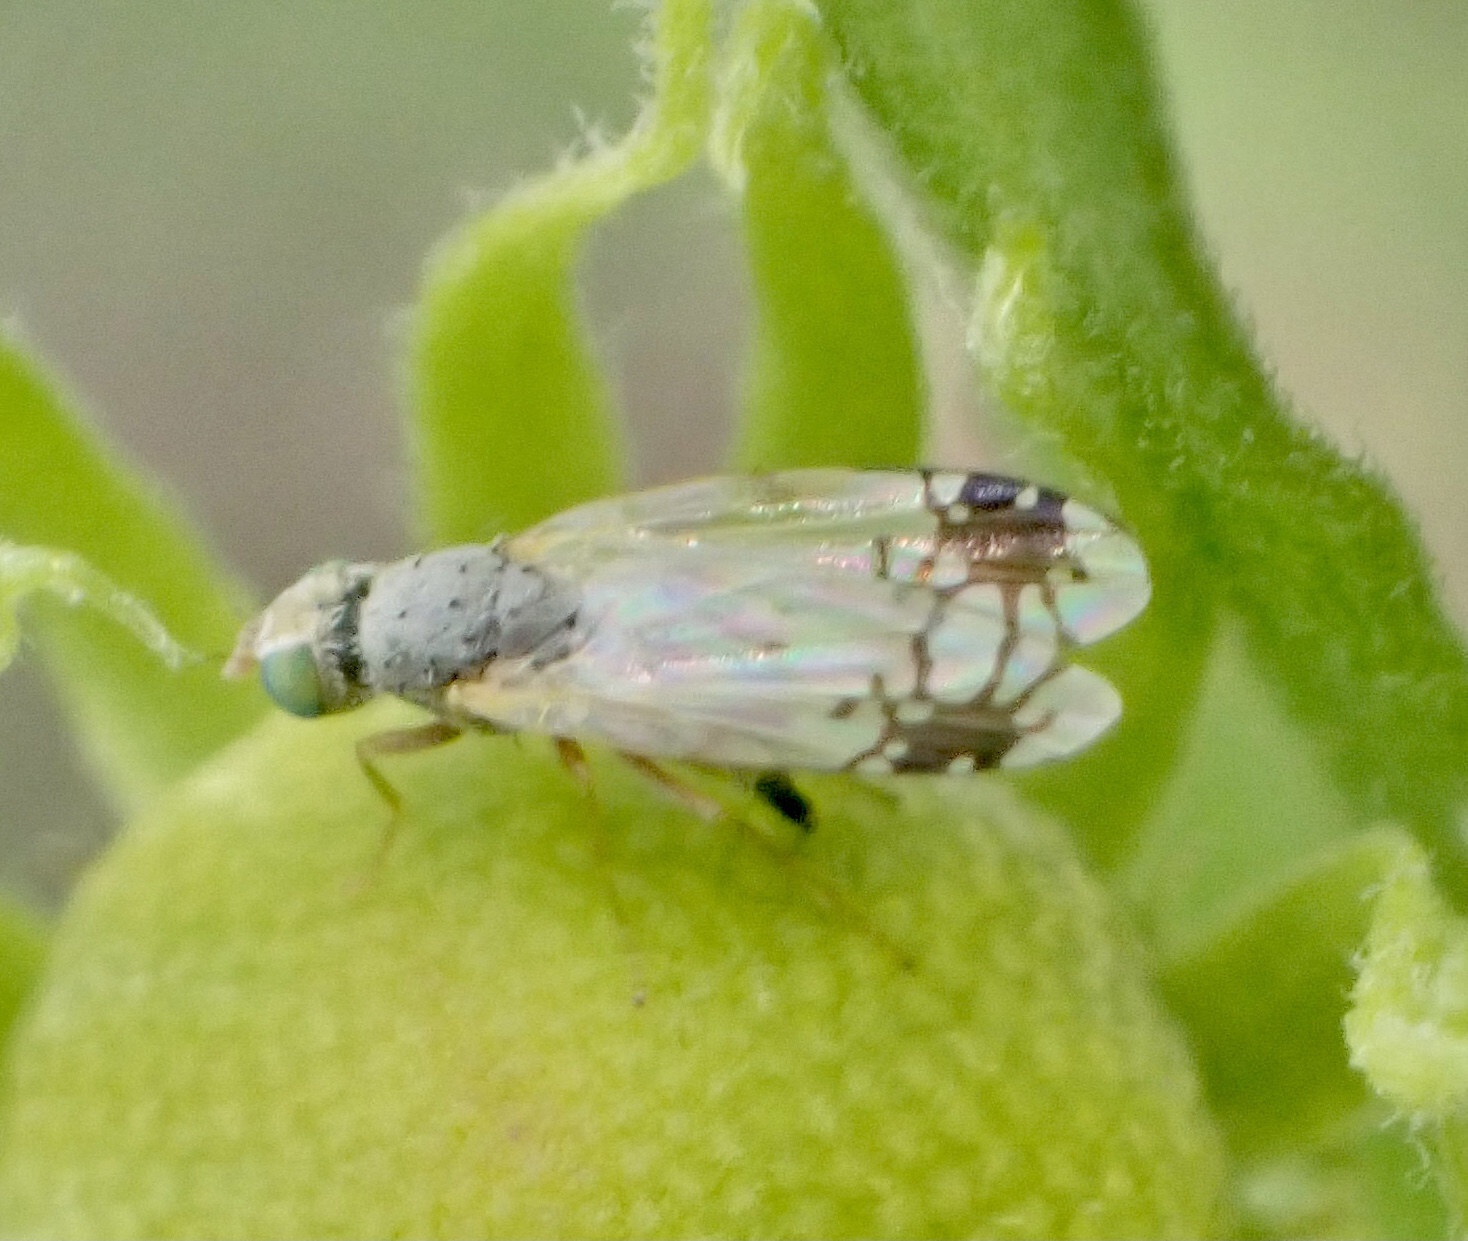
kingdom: Animalia
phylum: Arthropoda
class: Insecta
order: Diptera
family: Tephritidae
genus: Trupanea
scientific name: Trupanea stellata
